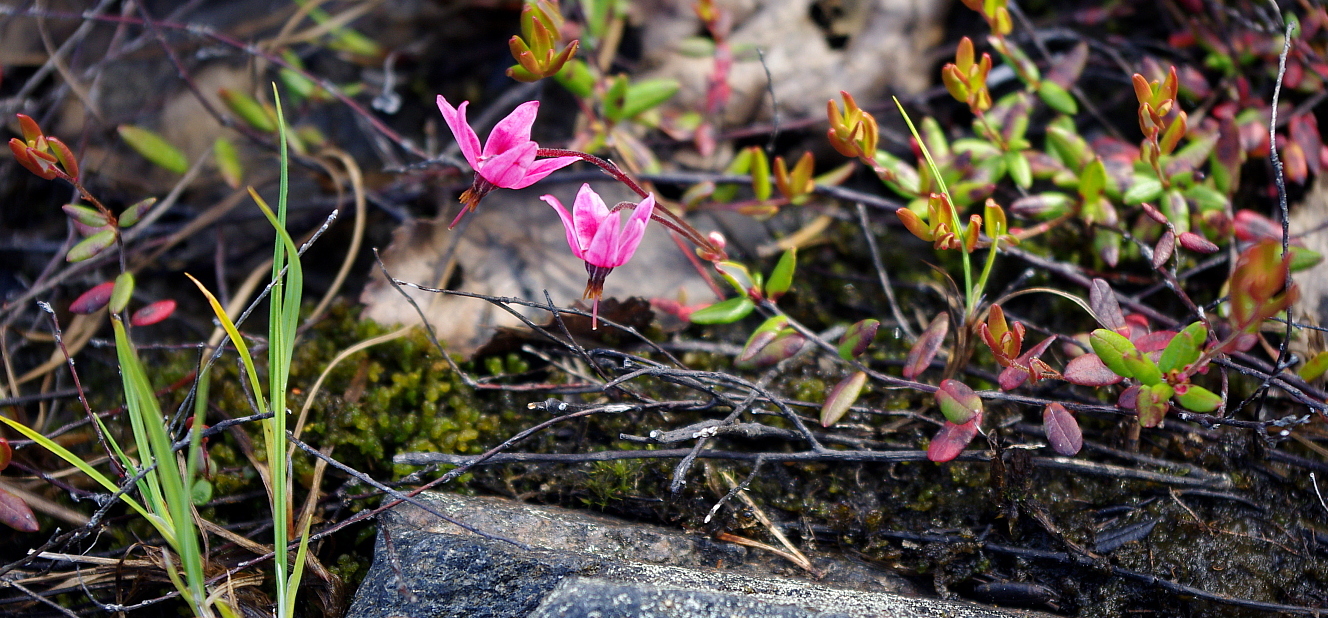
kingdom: Plantae
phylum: Tracheophyta
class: Magnoliopsida
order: Ericales
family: Ericaceae
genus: Vaccinium
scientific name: Vaccinium oxycoccos
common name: Cranberry
